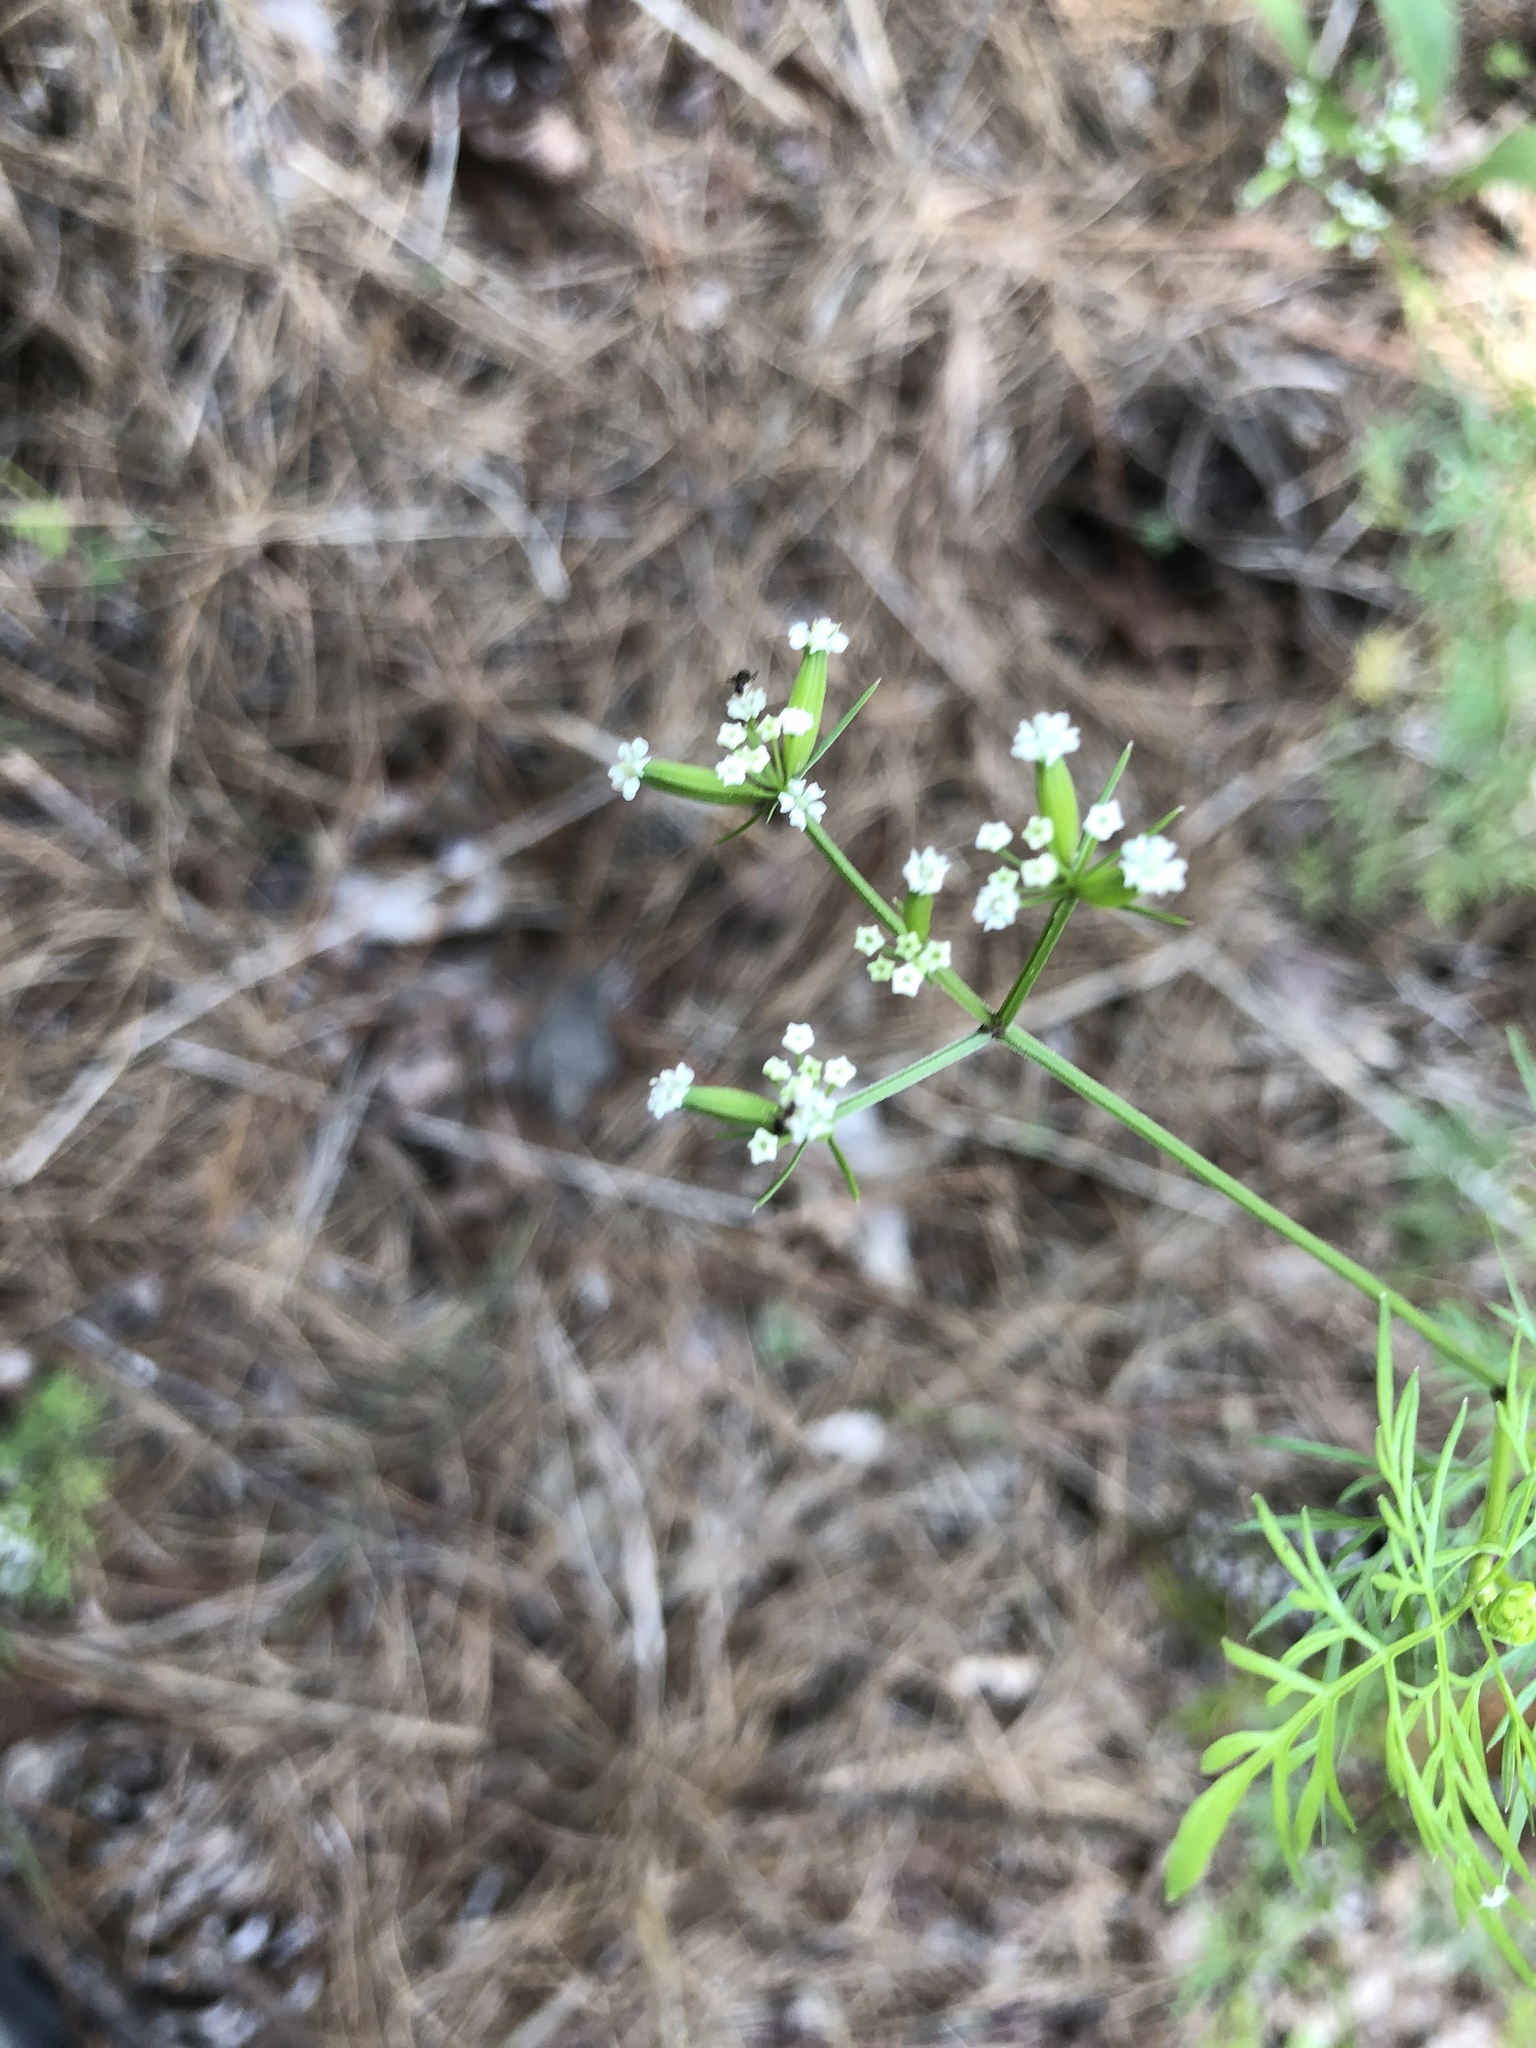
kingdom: Plantae
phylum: Tracheophyta
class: Magnoliopsida
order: Apiales
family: Apiaceae
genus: Trepocarpus
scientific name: Trepocarpus aethusae
